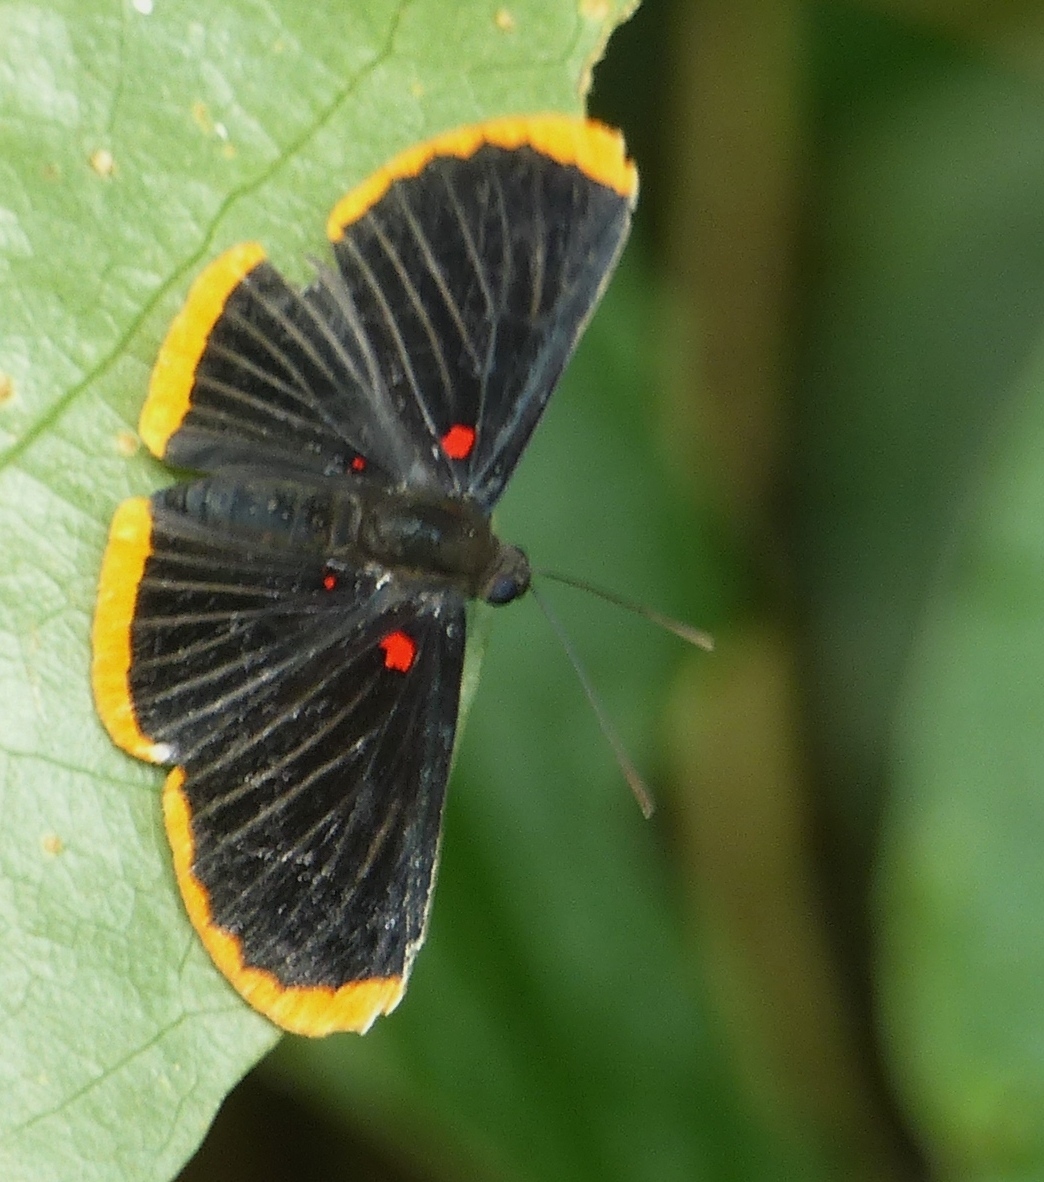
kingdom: Animalia
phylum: Arthropoda
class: Insecta
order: Lepidoptera
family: Lycaenidae
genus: Melanis
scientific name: Melanis smithiae
